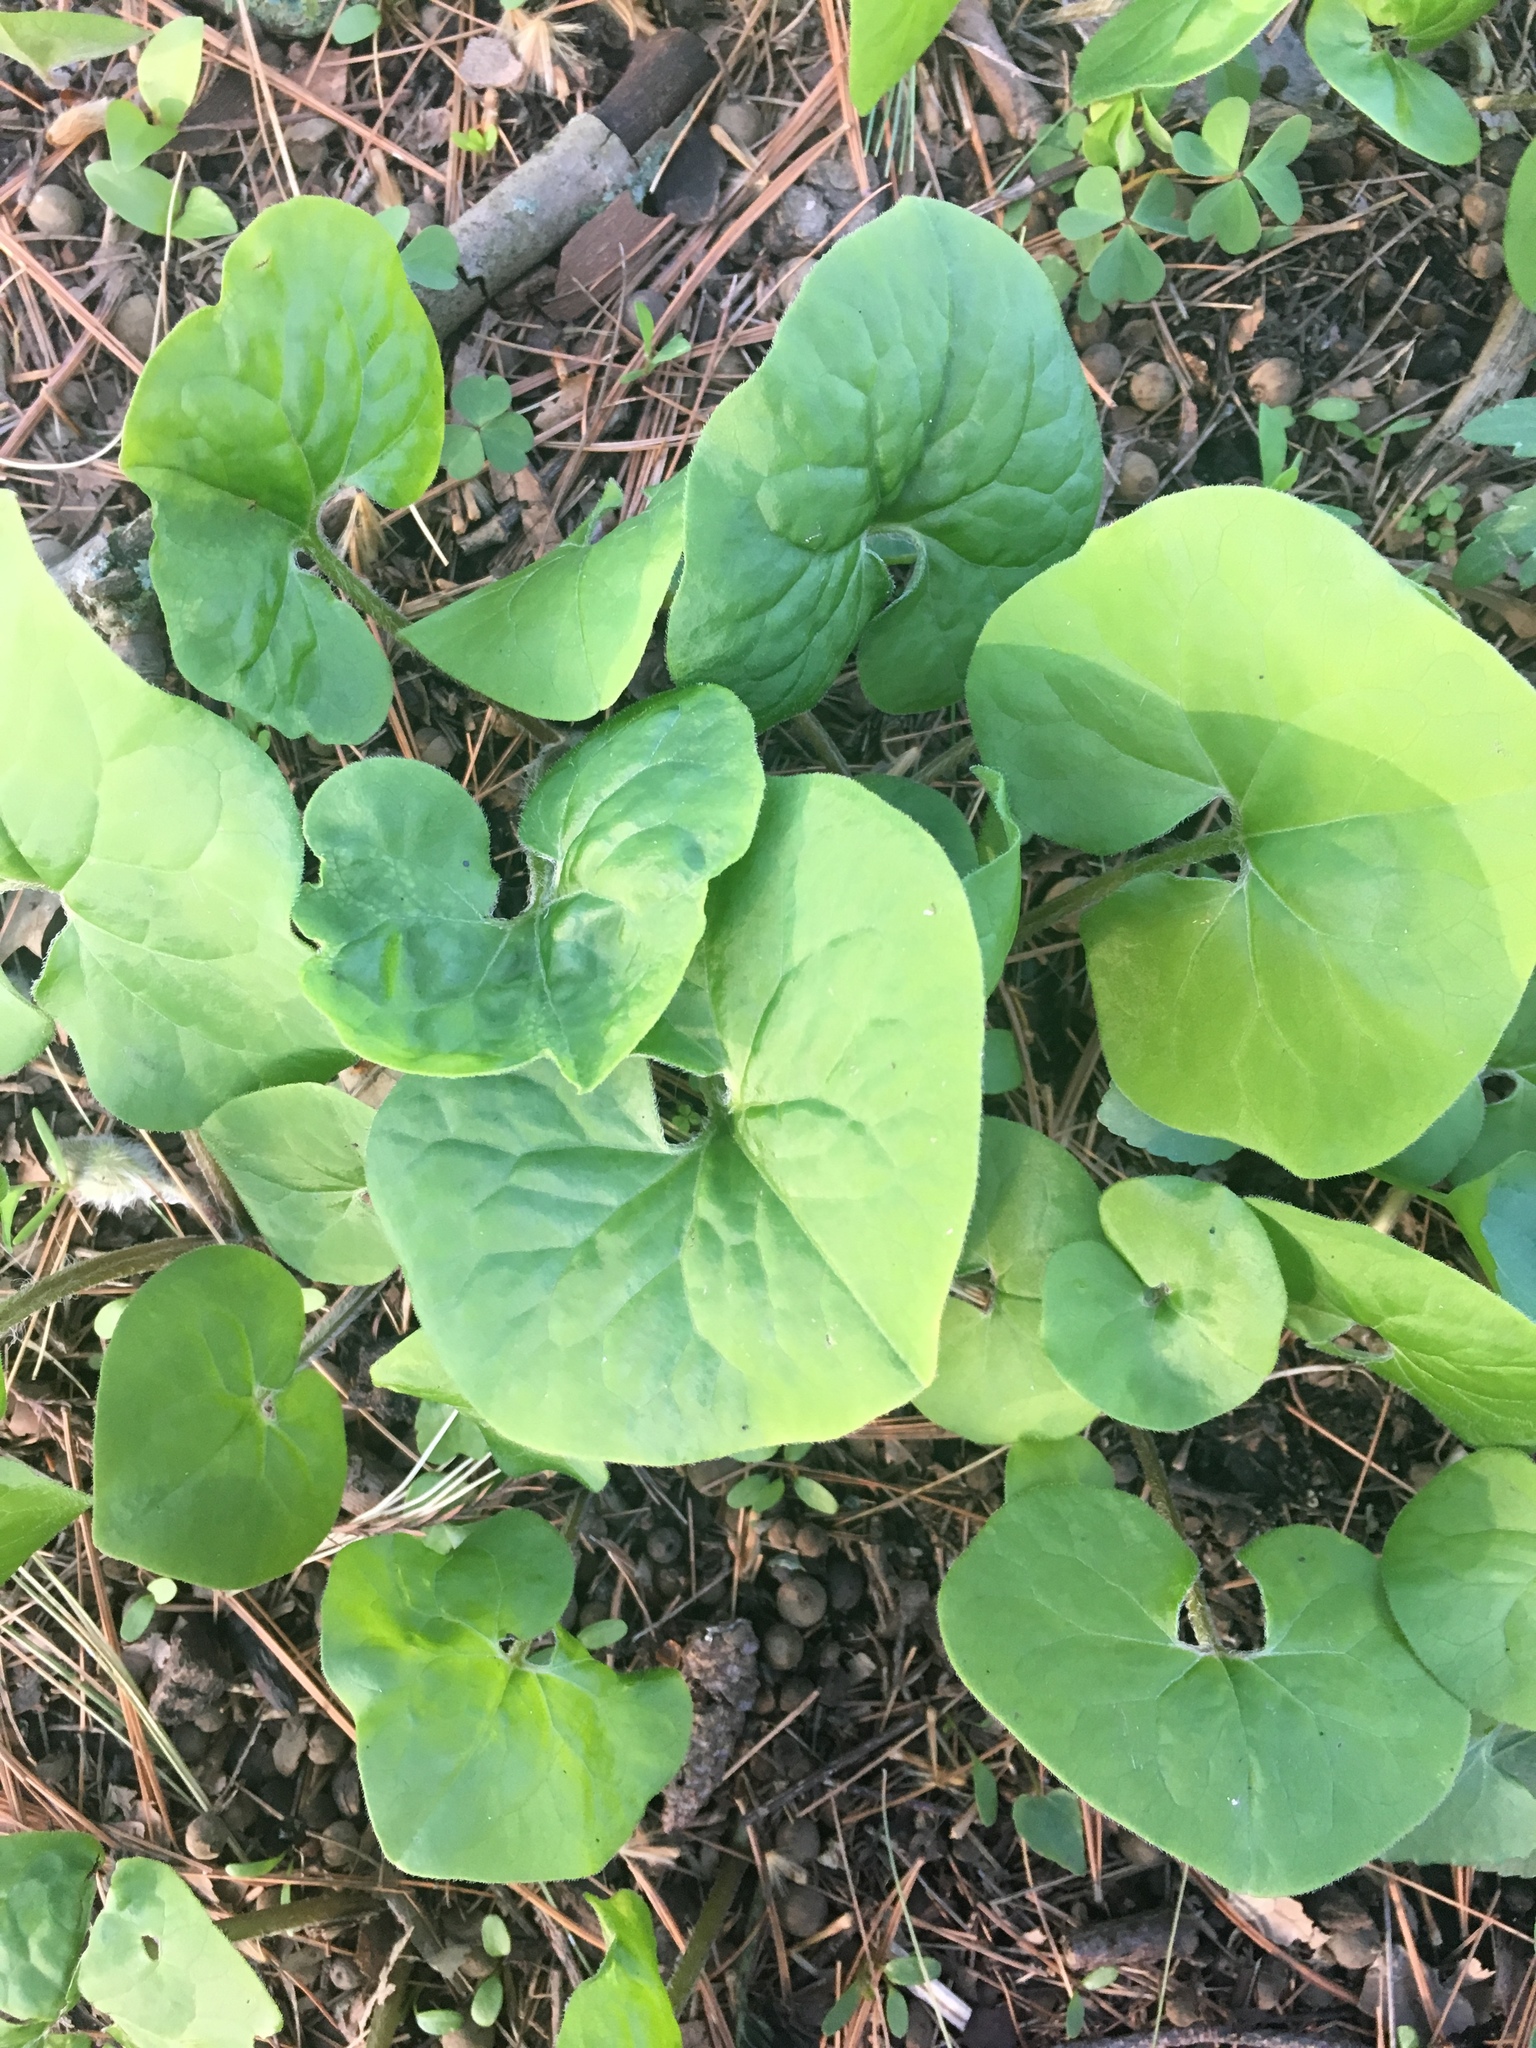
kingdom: Plantae
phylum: Tracheophyta
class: Magnoliopsida
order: Piperales
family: Aristolochiaceae
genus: Asarum
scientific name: Asarum canadense
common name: Wild ginger
